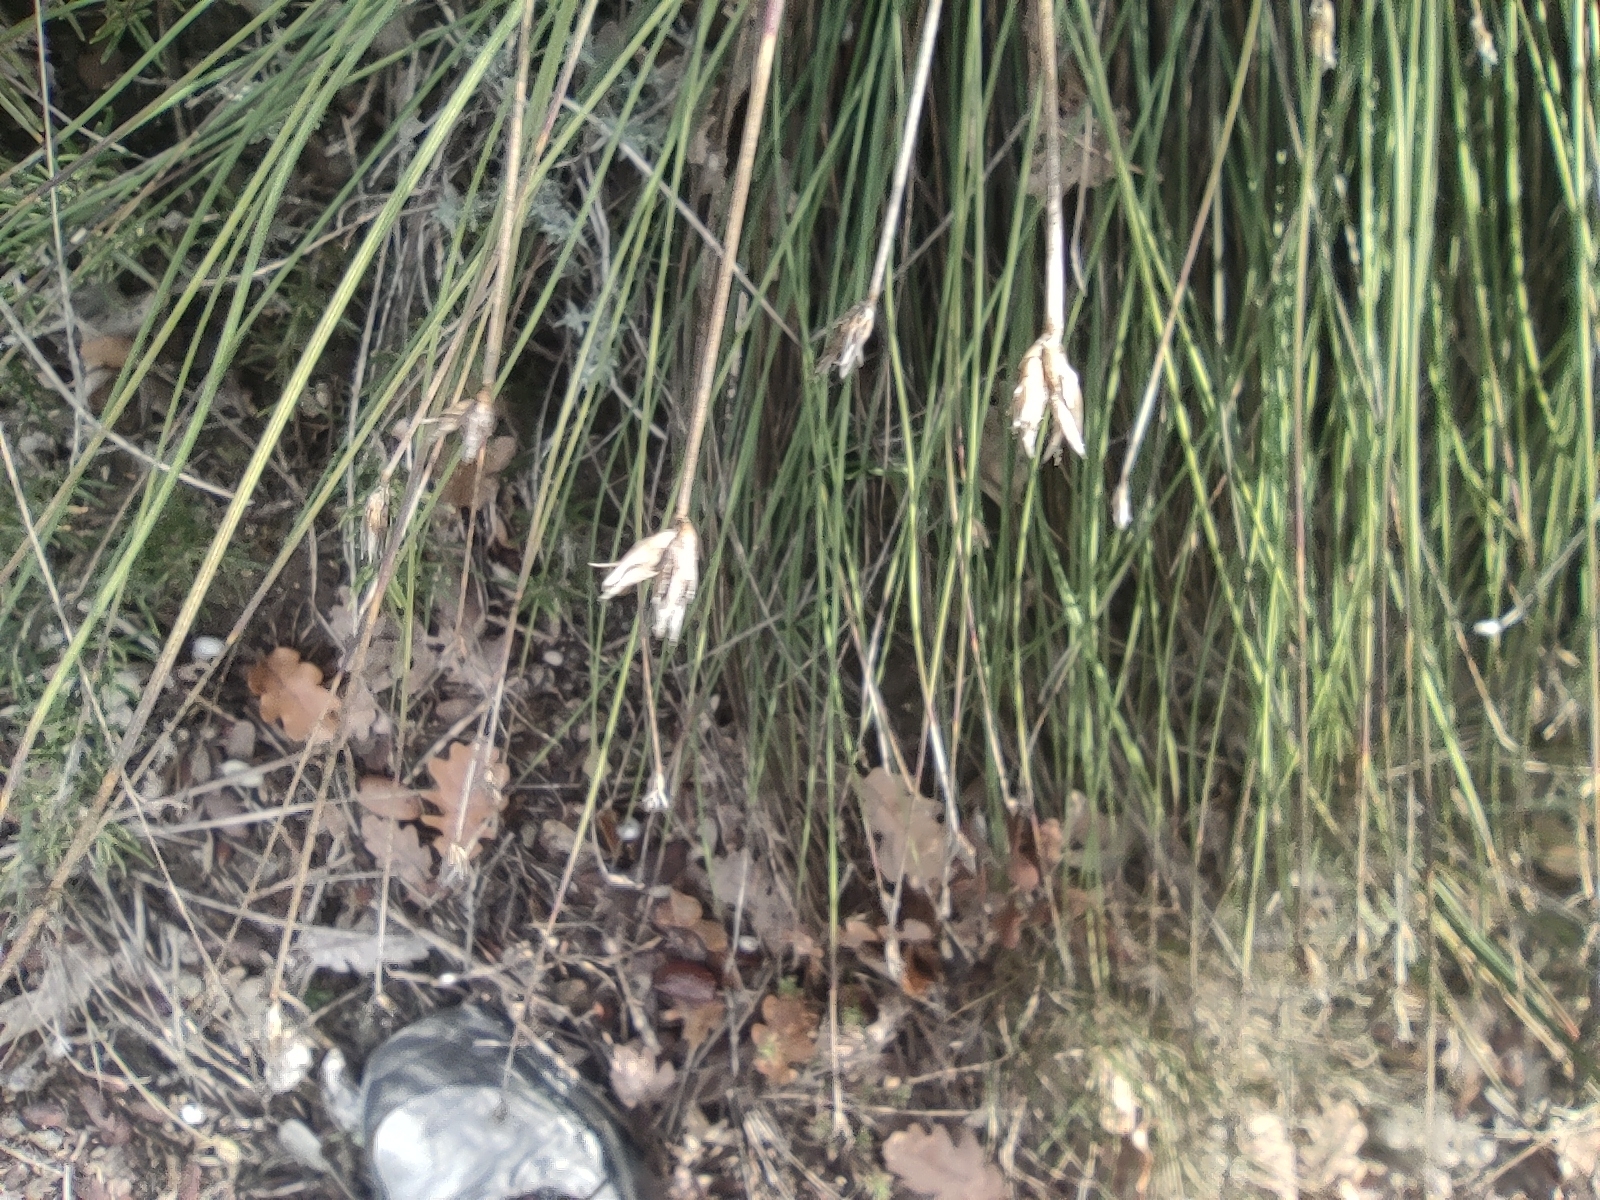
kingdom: Plantae
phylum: Tracheophyta
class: Liliopsida
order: Asparagales
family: Asparagaceae
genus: Aphyllanthes
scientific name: Aphyllanthes monspeliensis
